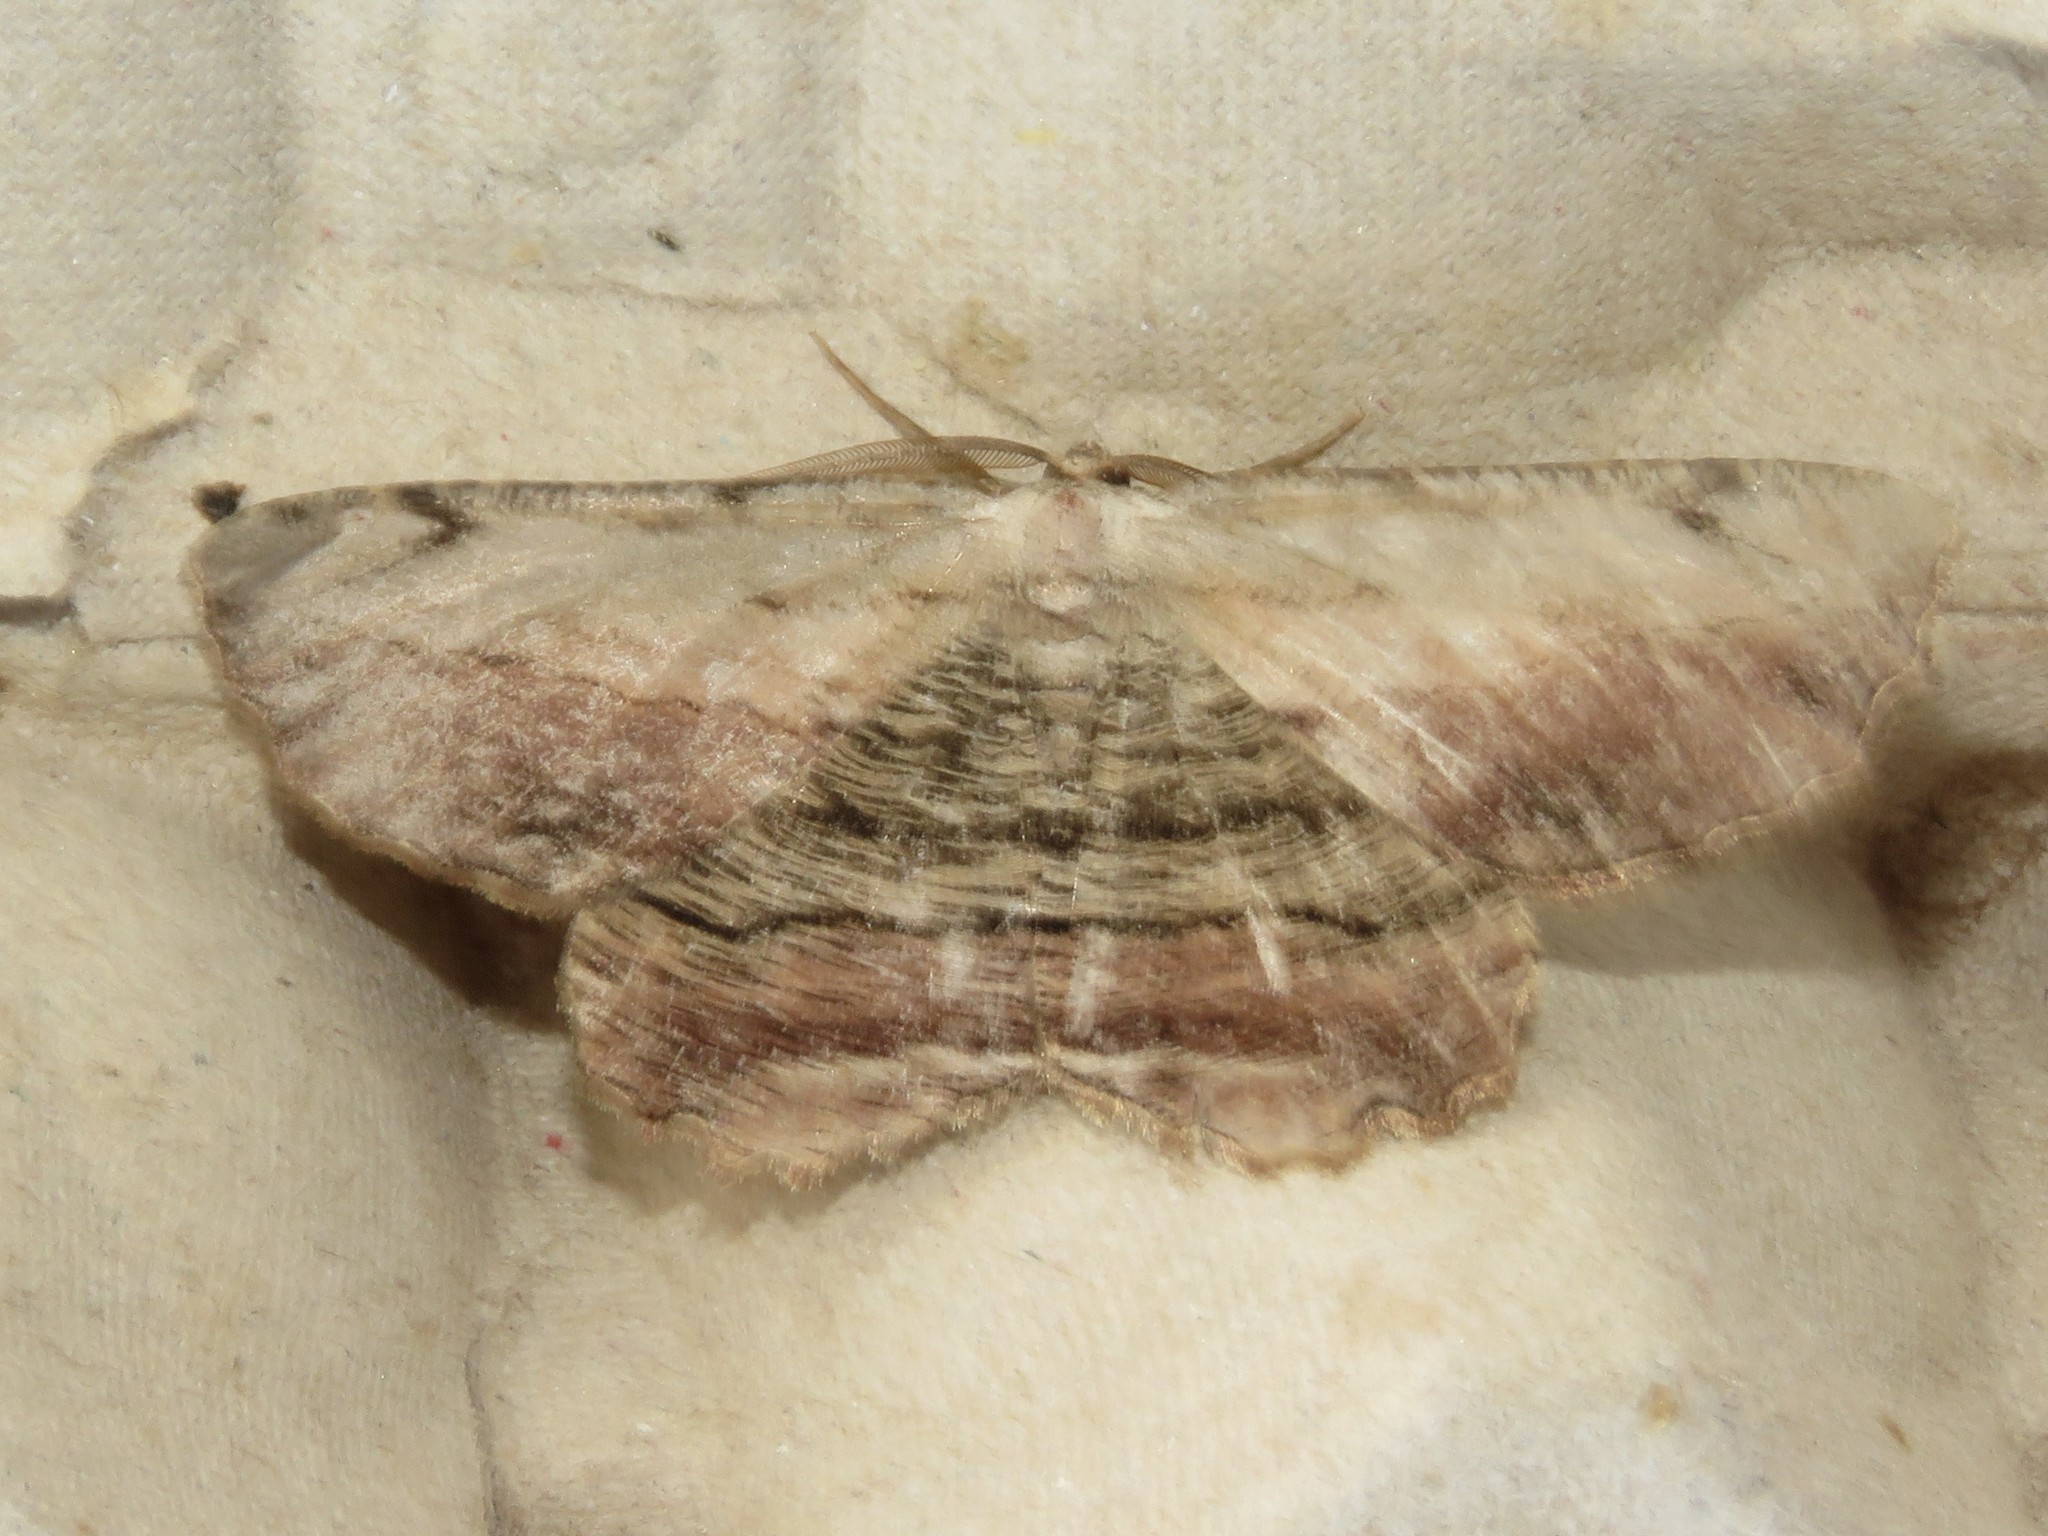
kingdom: Animalia
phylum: Arthropoda
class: Insecta
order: Lepidoptera
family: Geometridae
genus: Lytrosis
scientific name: Lytrosis unitaria
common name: Common lytrosis
